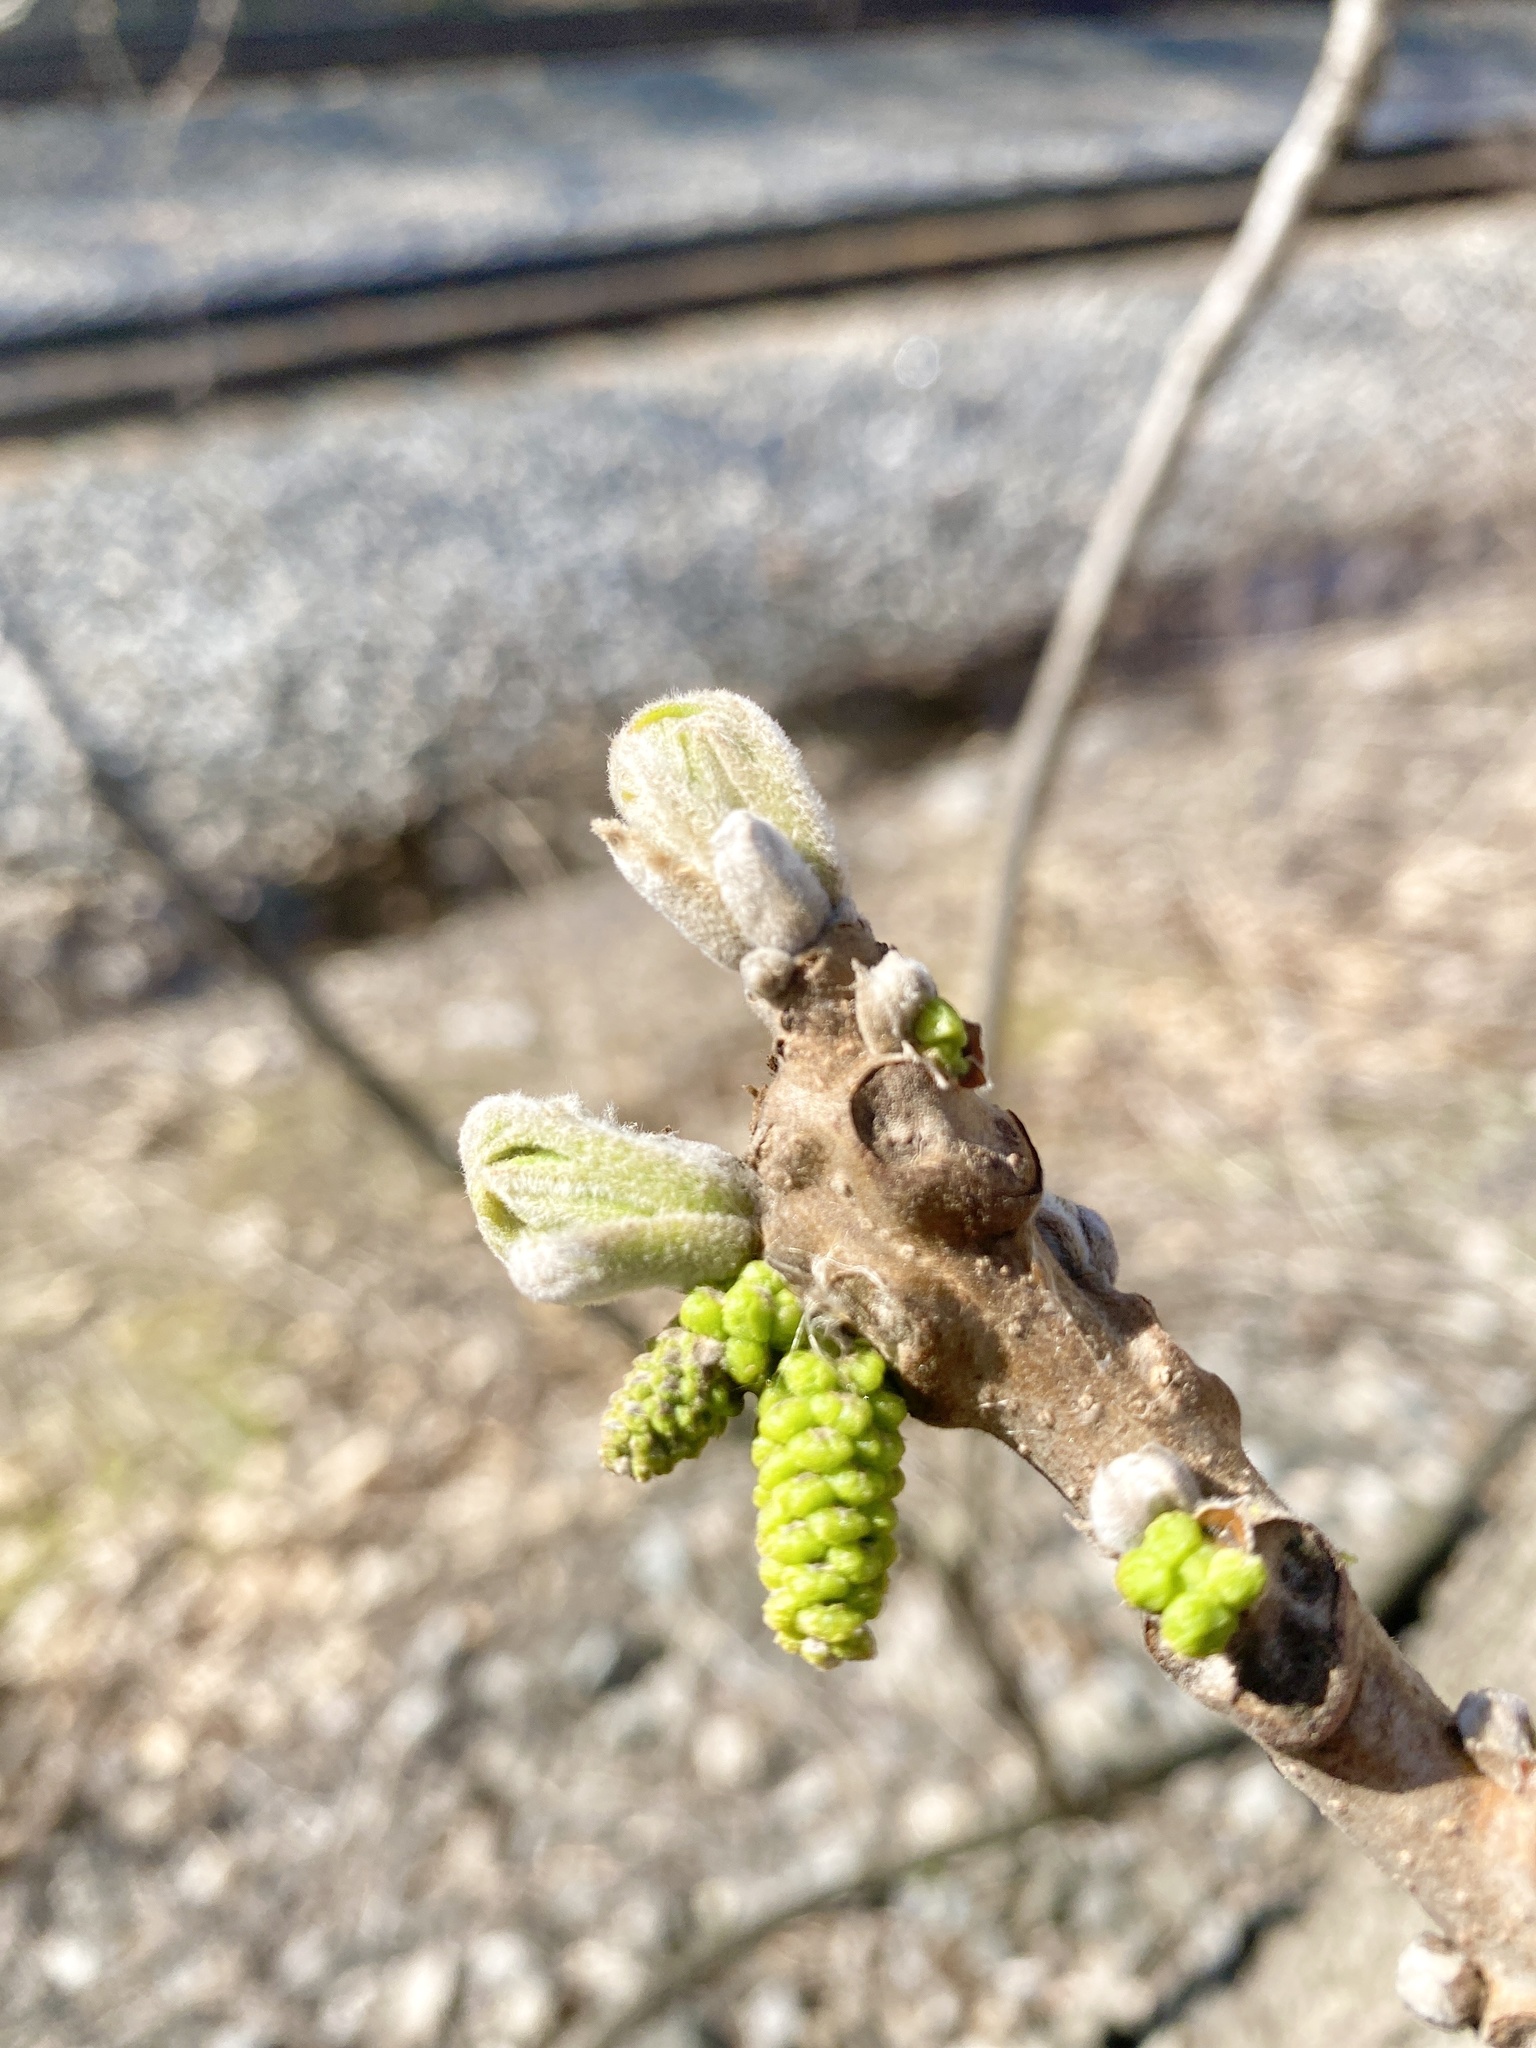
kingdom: Plantae
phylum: Tracheophyta
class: Magnoliopsida
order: Fagales
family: Juglandaceae
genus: Juglans
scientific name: Juglans nigra
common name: Black walnut
